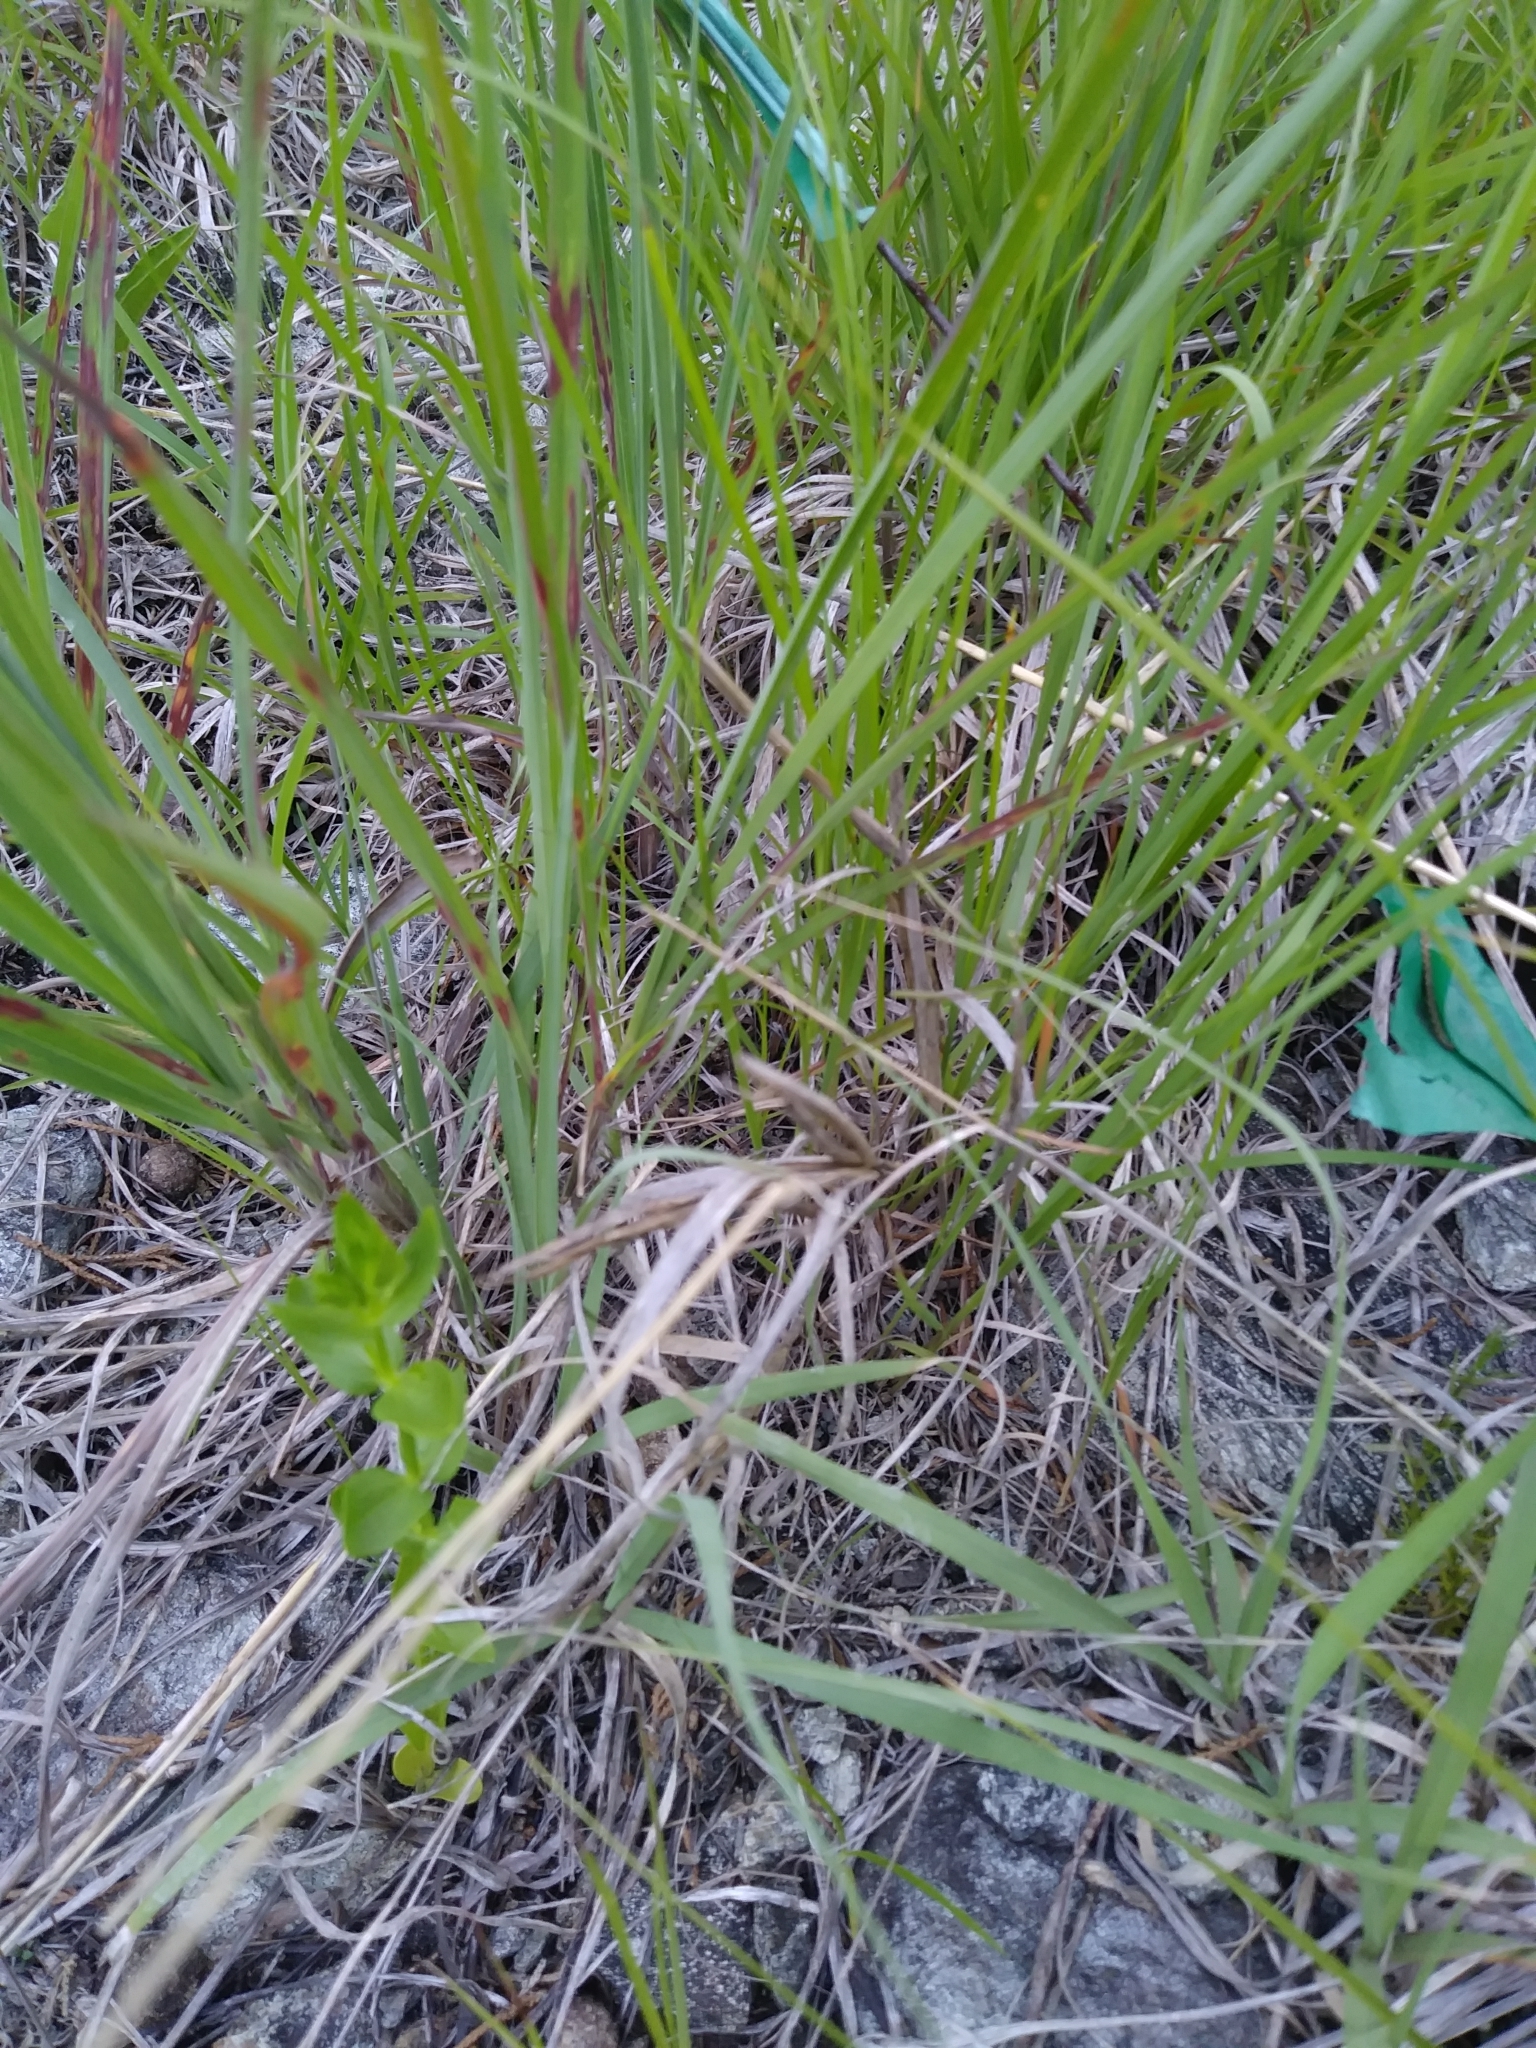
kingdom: Plantae
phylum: Tracheophyta
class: Magnoliopsida
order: Gentianales
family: Gentianaceae
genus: Sabatia
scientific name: Sabatia angularis
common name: Rose-pink
